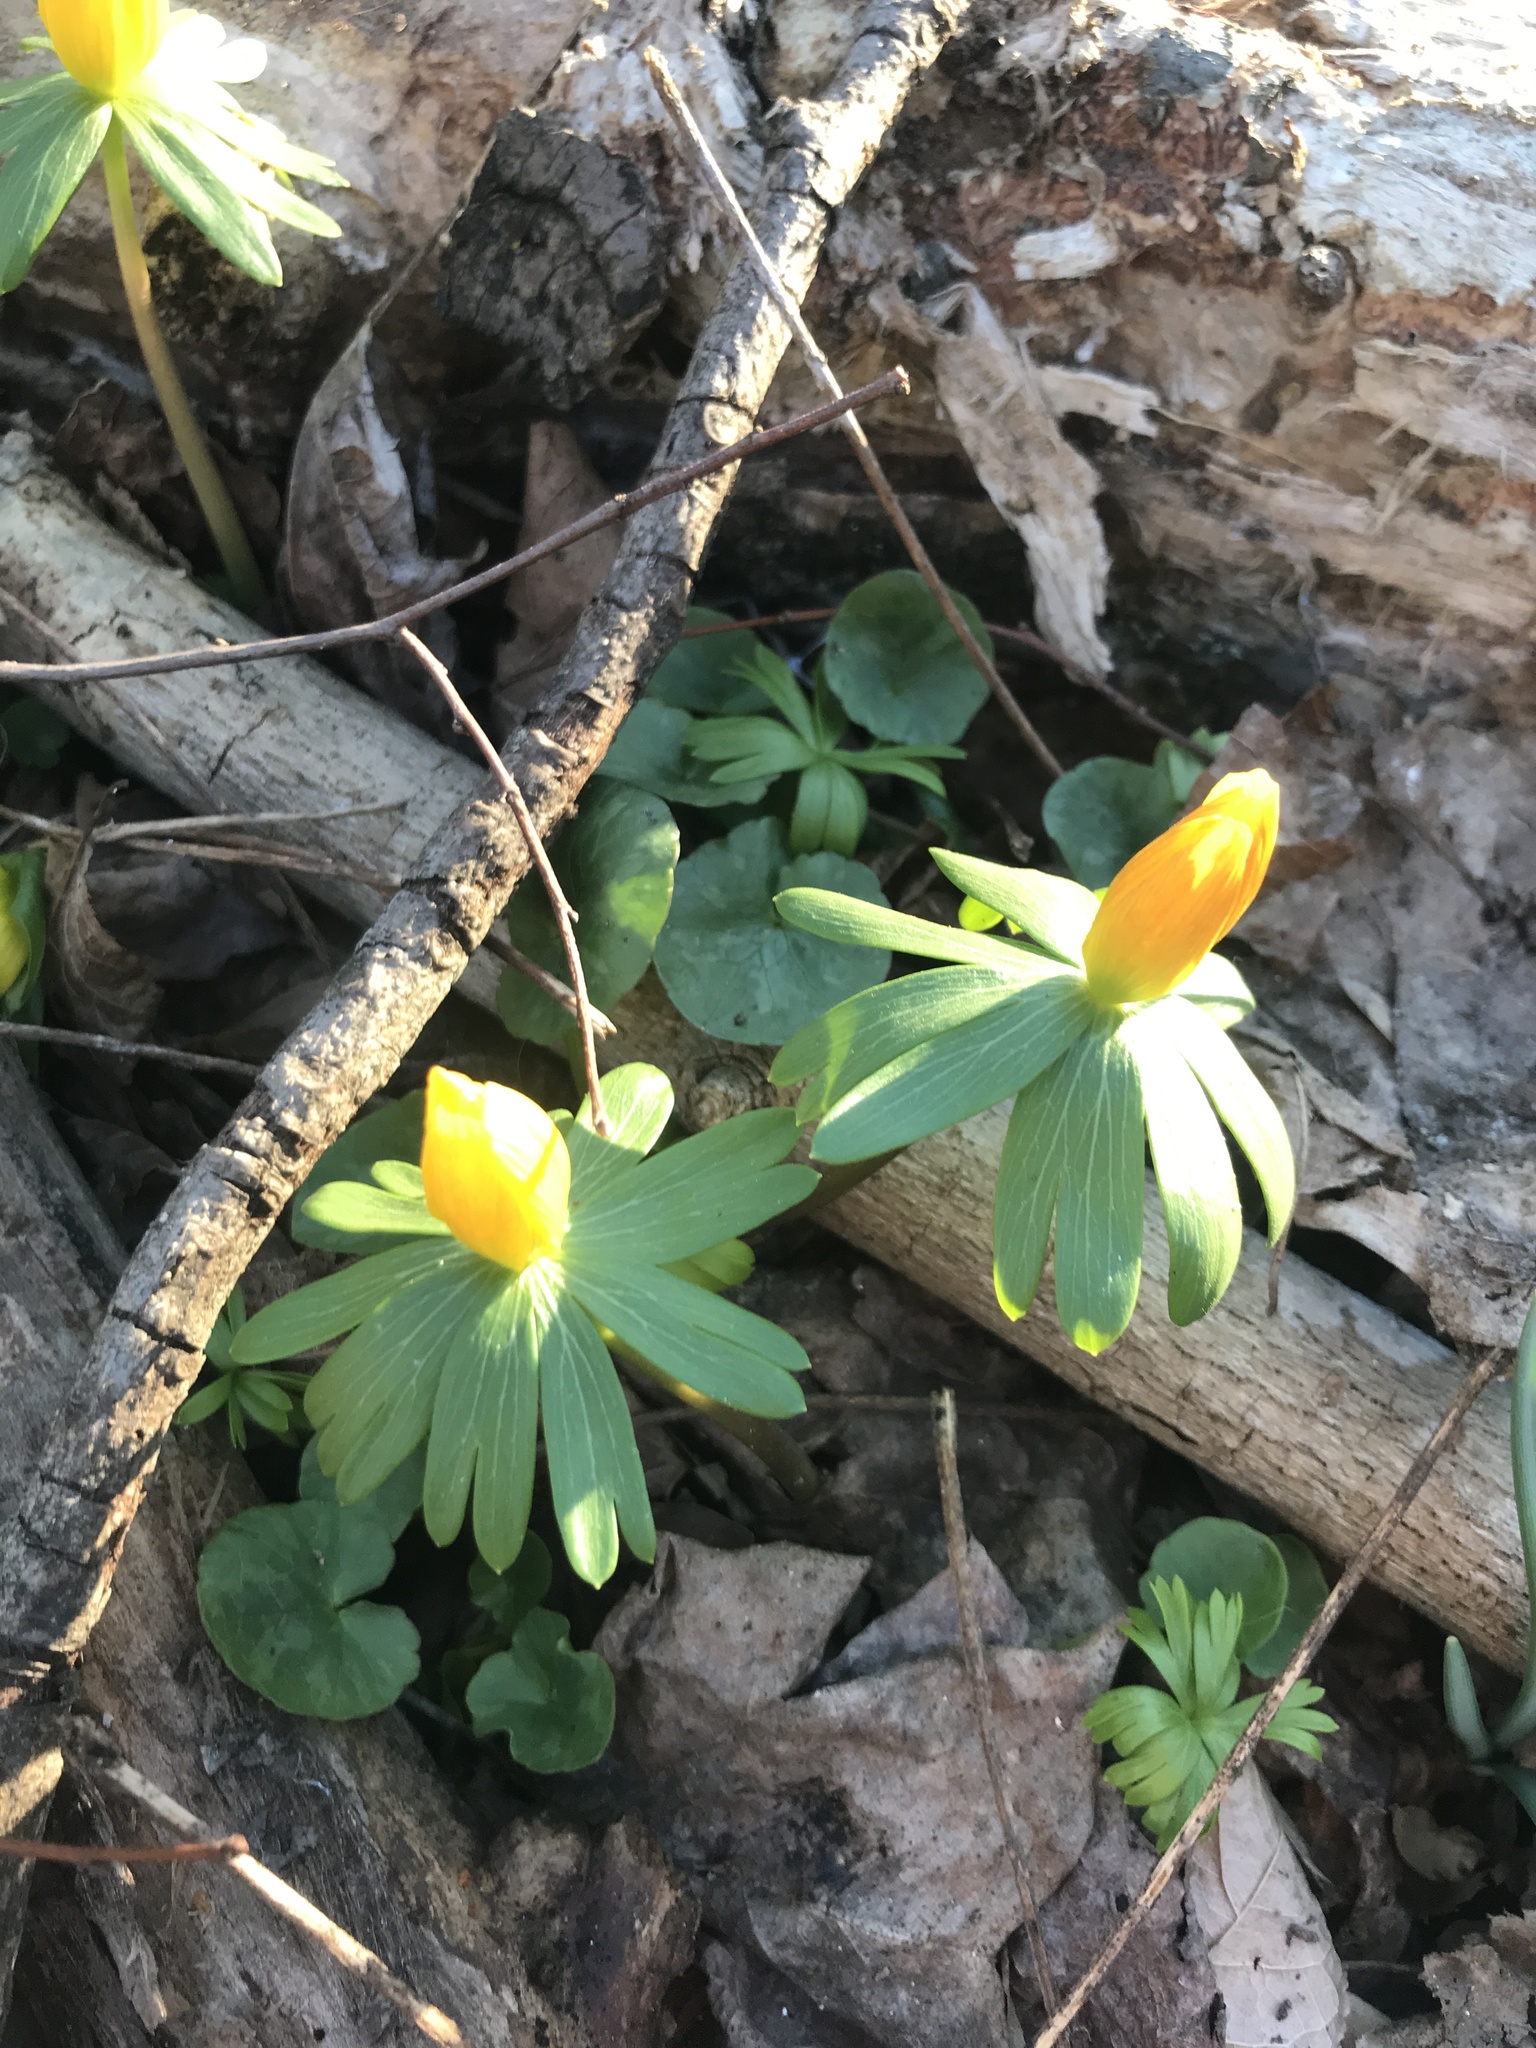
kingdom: Plantae
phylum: Tracheophyta
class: Magnoliopsida
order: Ranunculales
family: Ranunculaceae
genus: Eranthis
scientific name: Eranthis hyemalis
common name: Winter aconite
